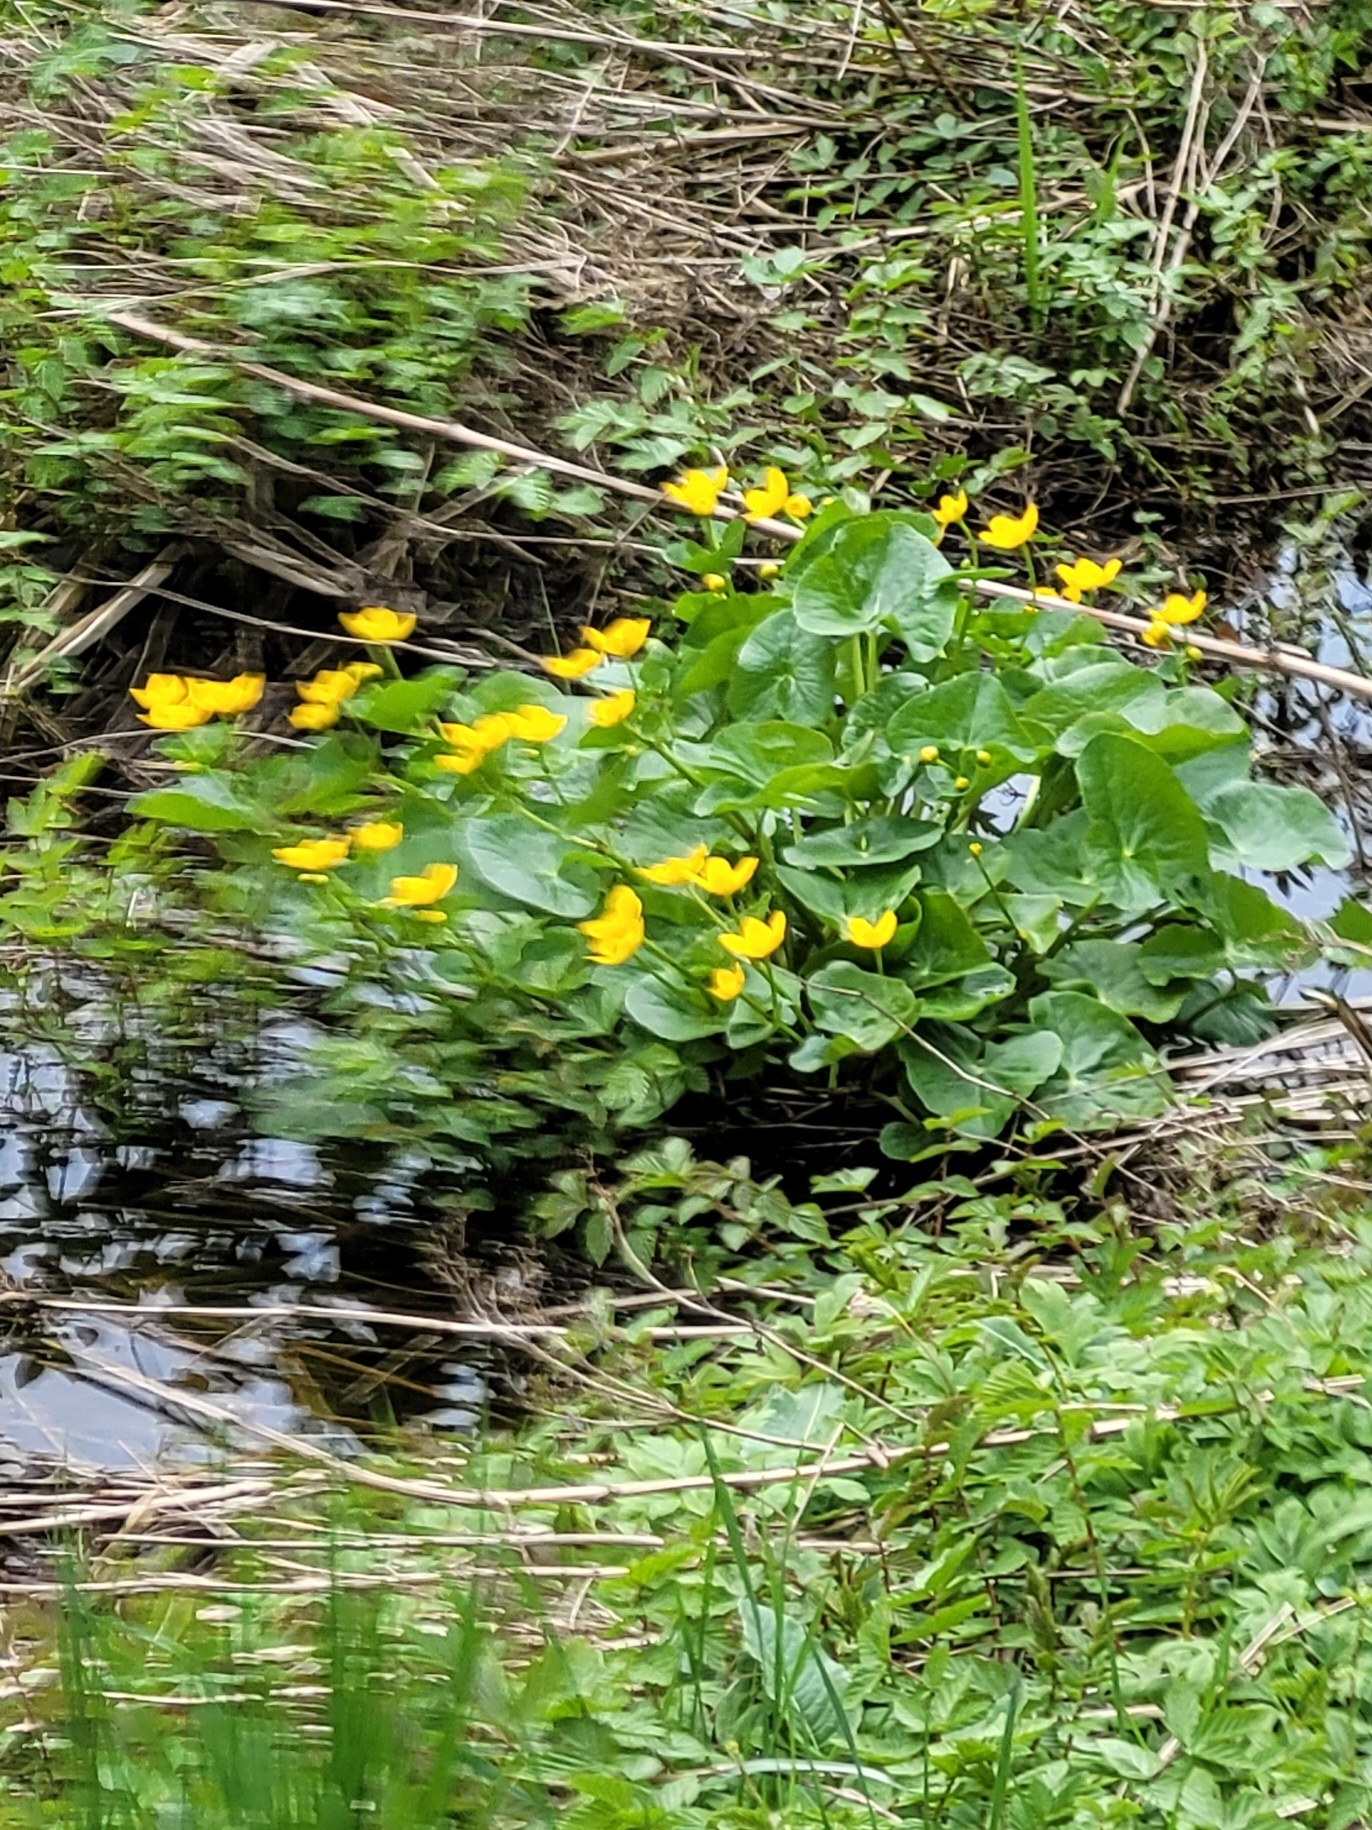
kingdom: Plantae
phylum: Tracheophyta
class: Magnoliopsida
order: Ranunculales
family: Ranunculaceae
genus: Caltha
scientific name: Caltha palustris
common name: Marsh marigold
